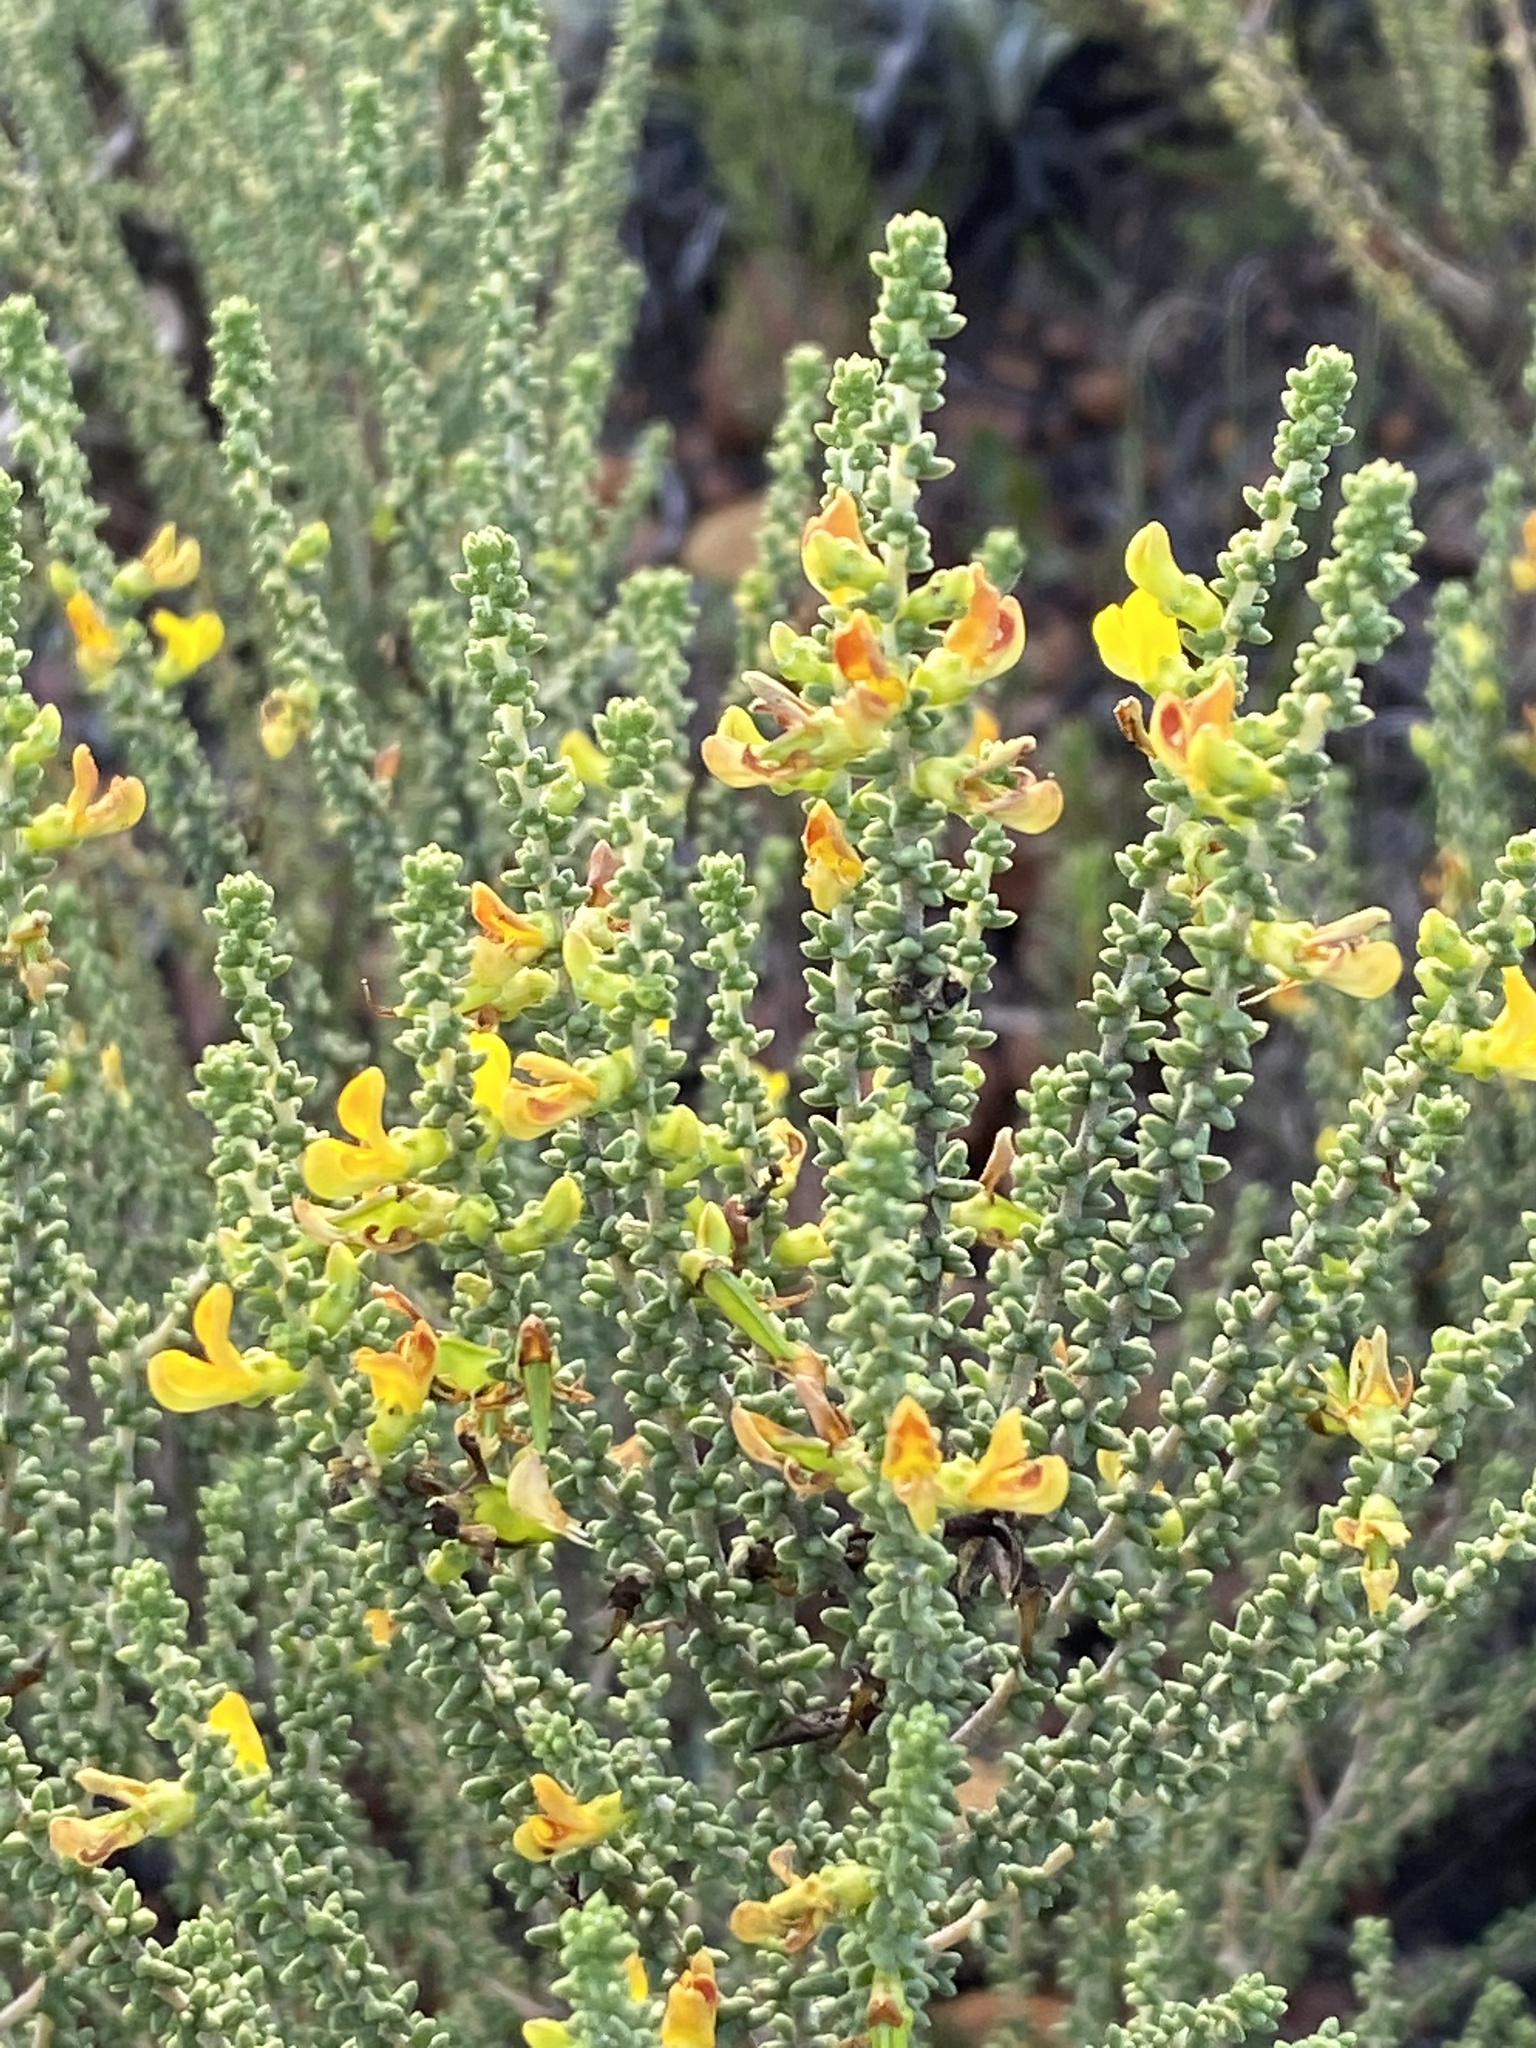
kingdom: Plantae
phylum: Tracheophyta
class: Magnoliopsida
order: Fabales
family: Fabaceae
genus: Aspalathus
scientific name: Aspalathus pinguis
